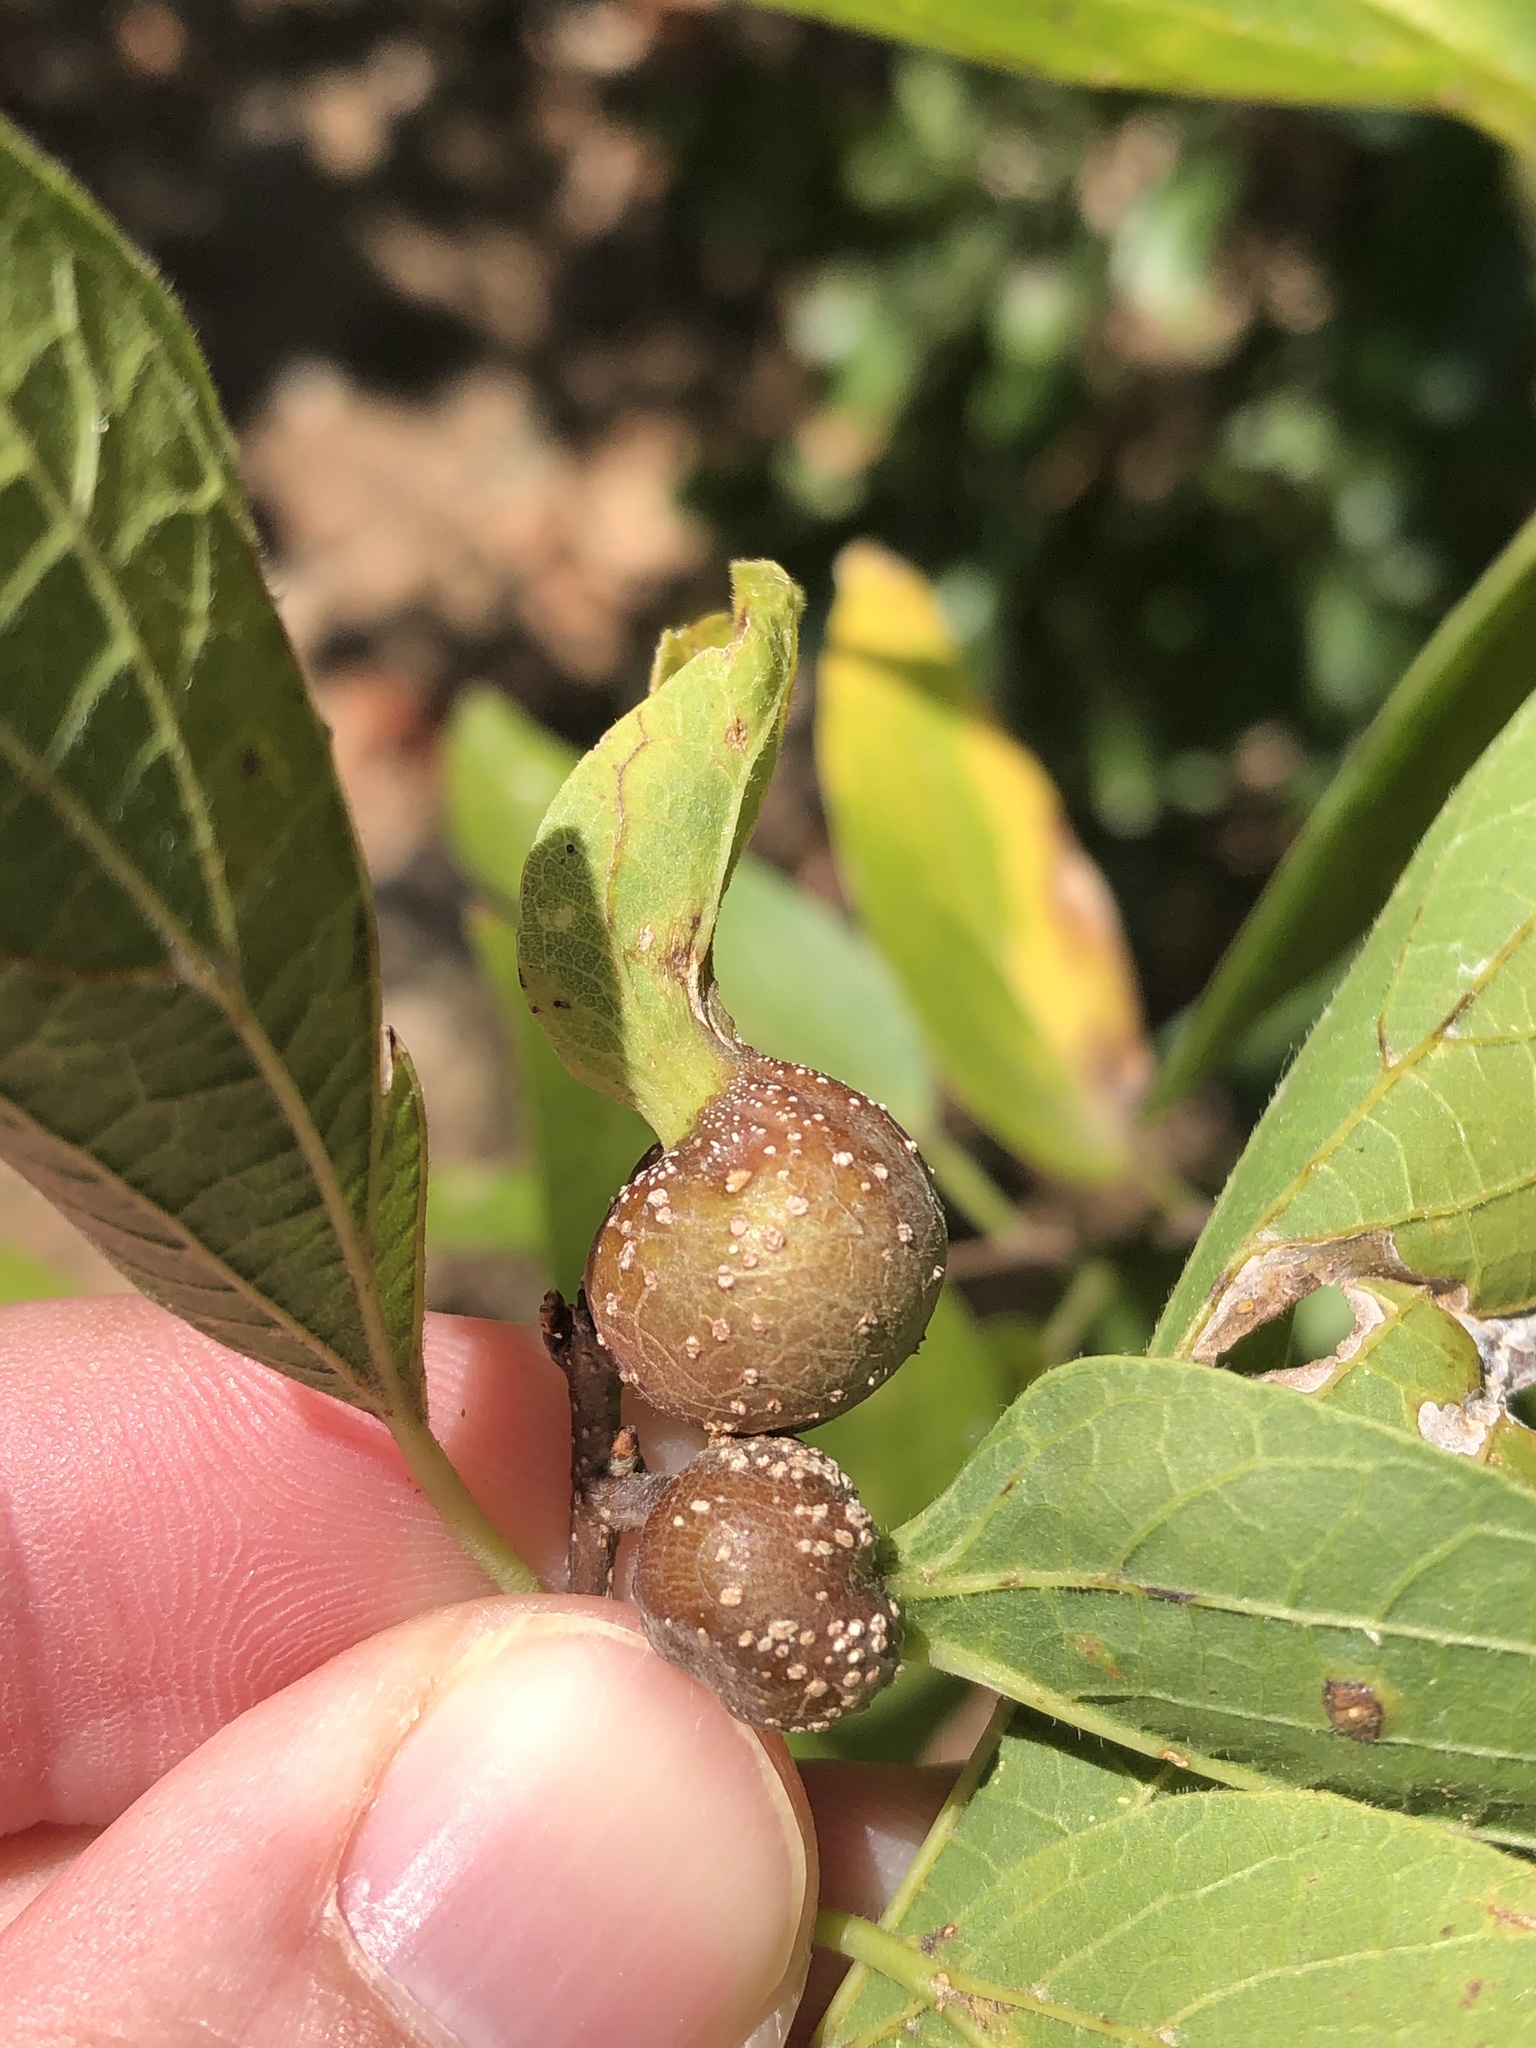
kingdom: Animalia
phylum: Arthropoda
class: Insecta
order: Hemiptera
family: Aphalaridae
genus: Pachypsylla
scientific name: Pachypsylla venusta
